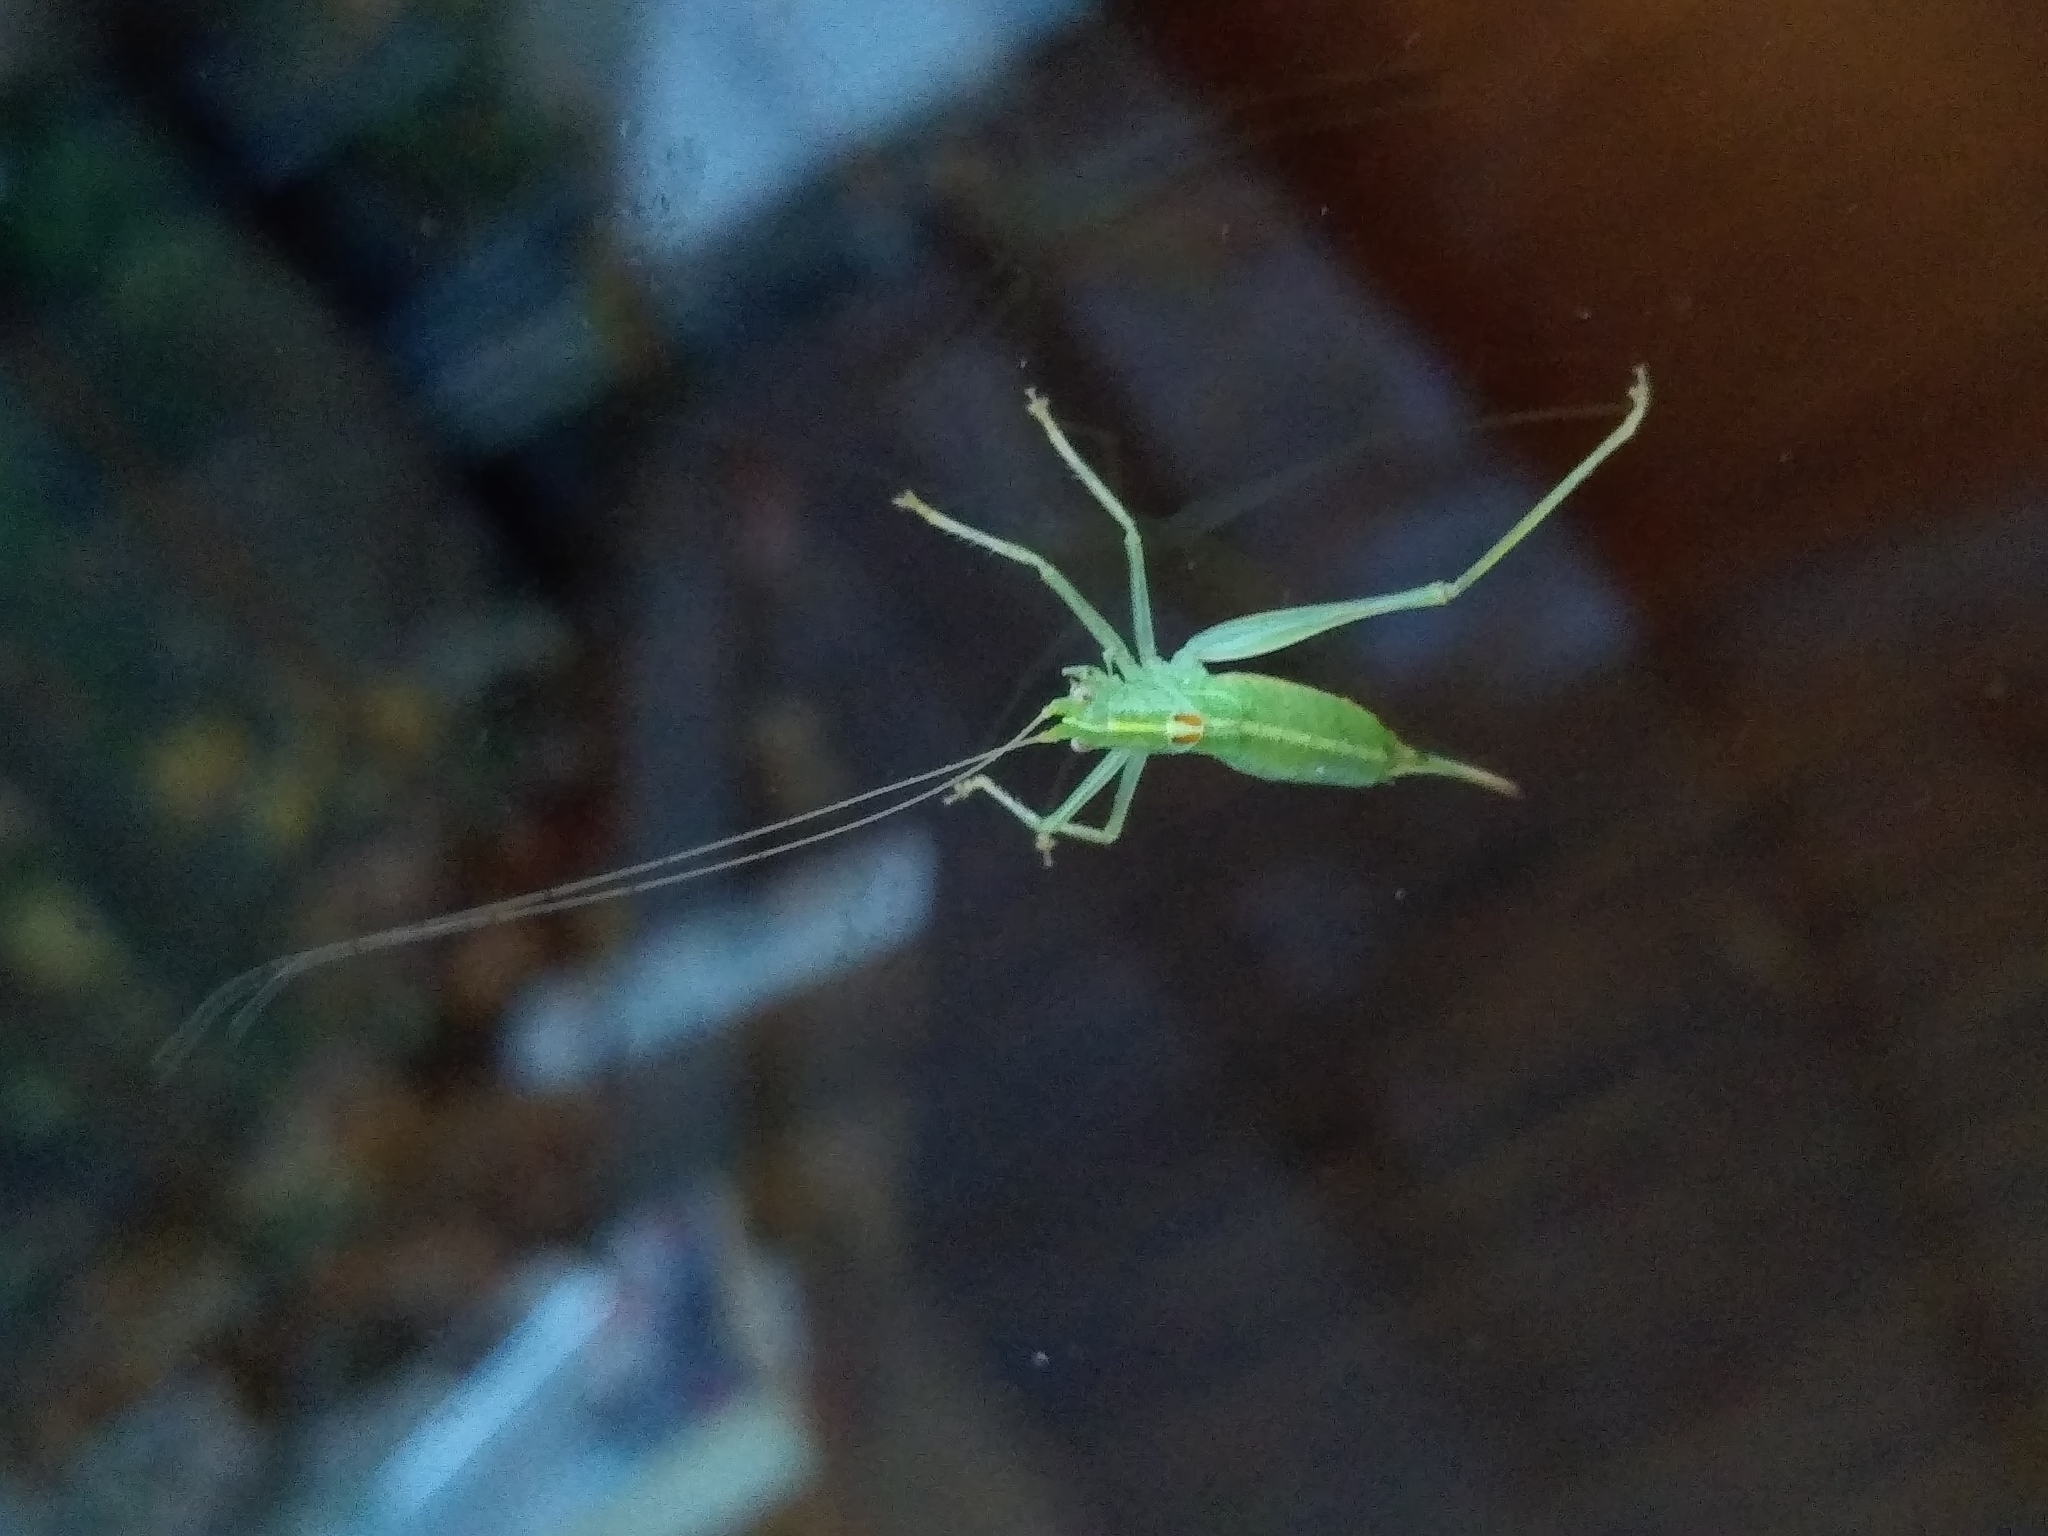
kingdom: Animalia
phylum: Arthropoda
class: Insecta
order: Orthoptera
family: Tettigoniidae
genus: Meconema
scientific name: Meconema meridionale
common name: Southern oak bush-cricket
